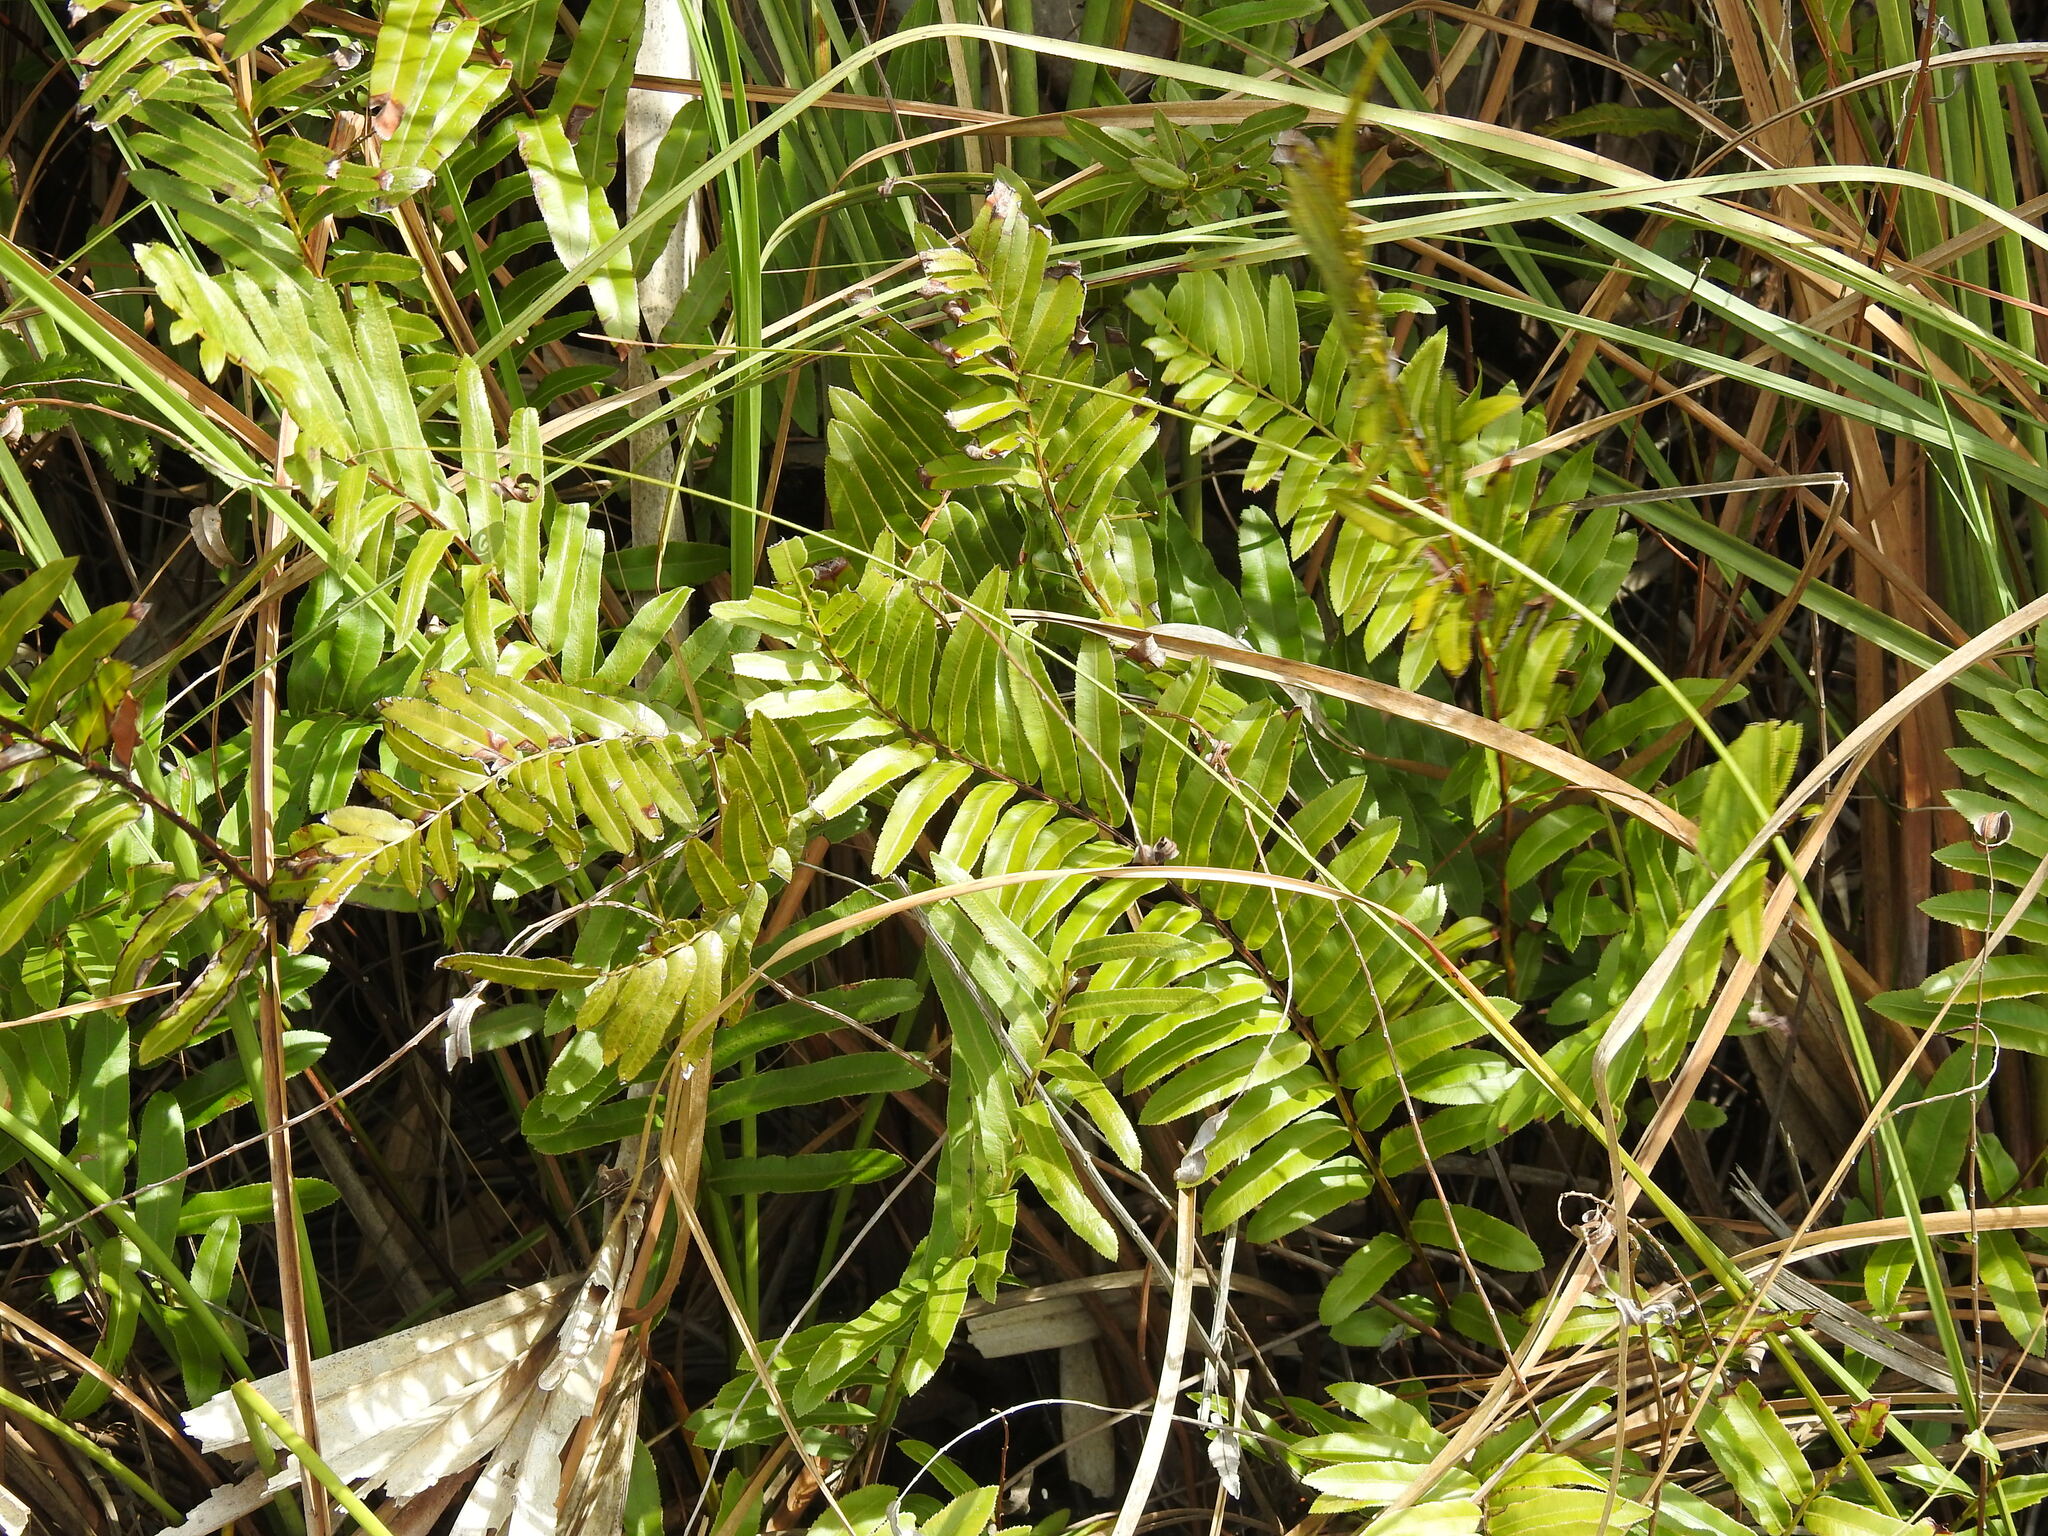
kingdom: Plantae
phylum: Tracheophyta
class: Polypodiopsida
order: Polypodiales
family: Blechnaceae
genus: Telmatoblechnum
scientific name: Telmatoblechnum serrulatum
